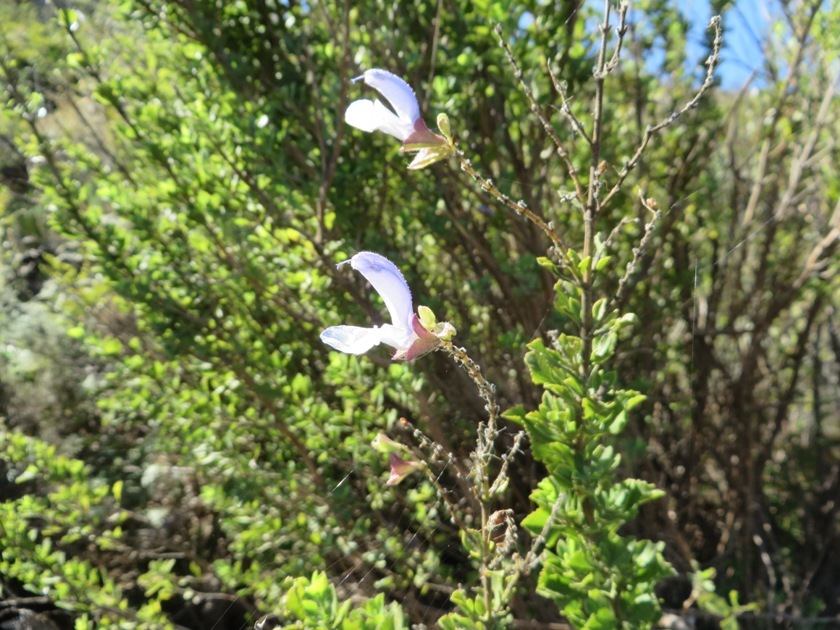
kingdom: Plantae
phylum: Tracheophyta
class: Magnoliopsida
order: Lamiales
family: Lamiaceae
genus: Salvia
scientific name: Salvia chamelaeagnea
